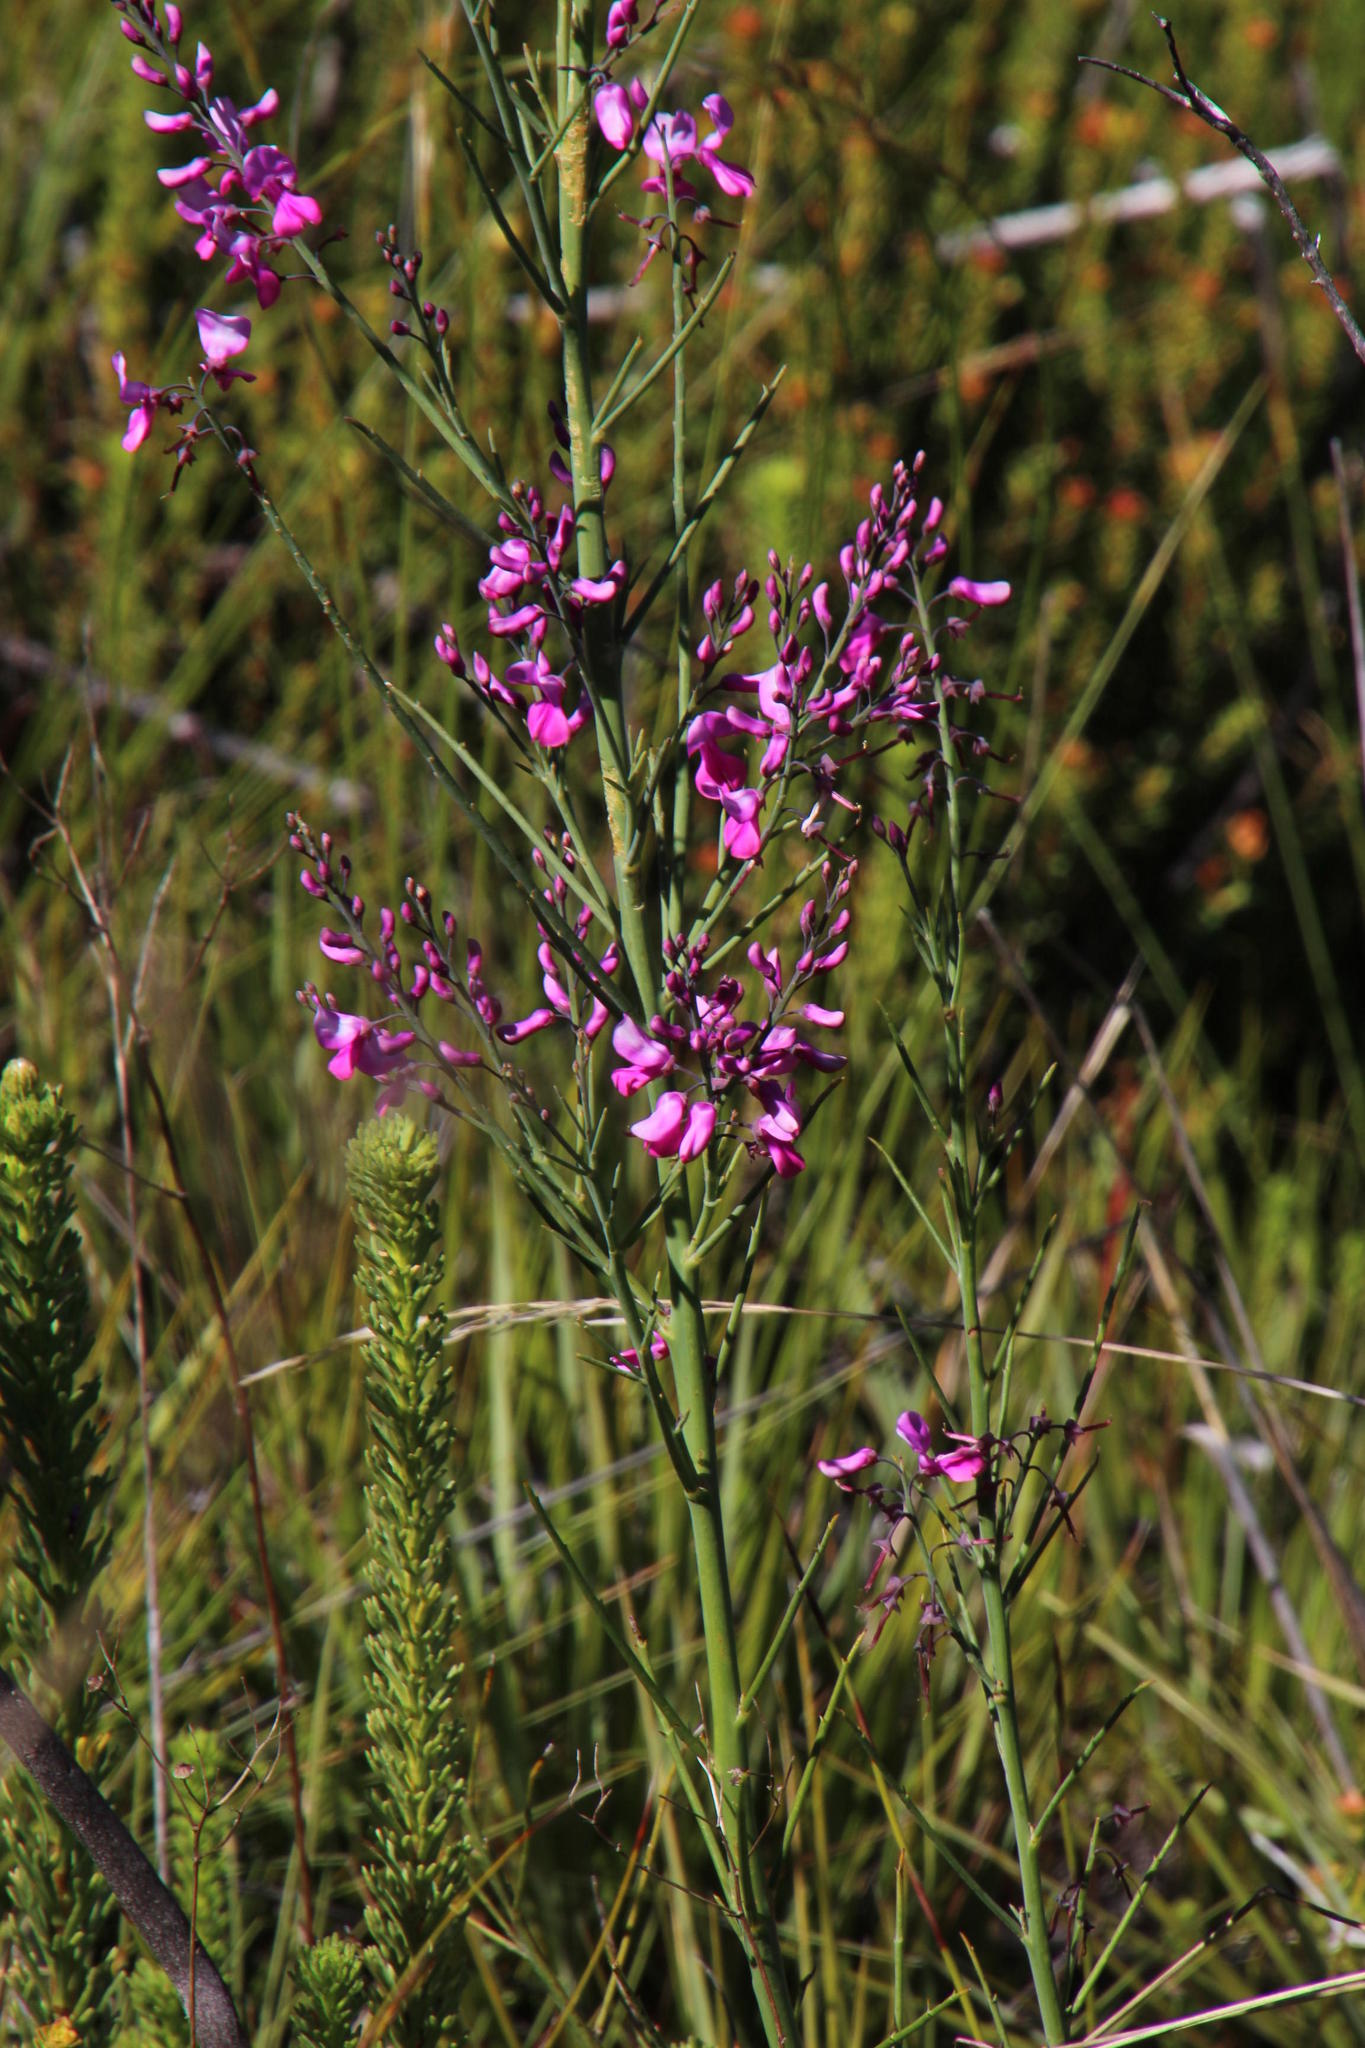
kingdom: Plantae
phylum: Tracheophyta
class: Magnoliopsida
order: Fabales
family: Fabaceae
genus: Indigofera
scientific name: Indigofera filifolia
